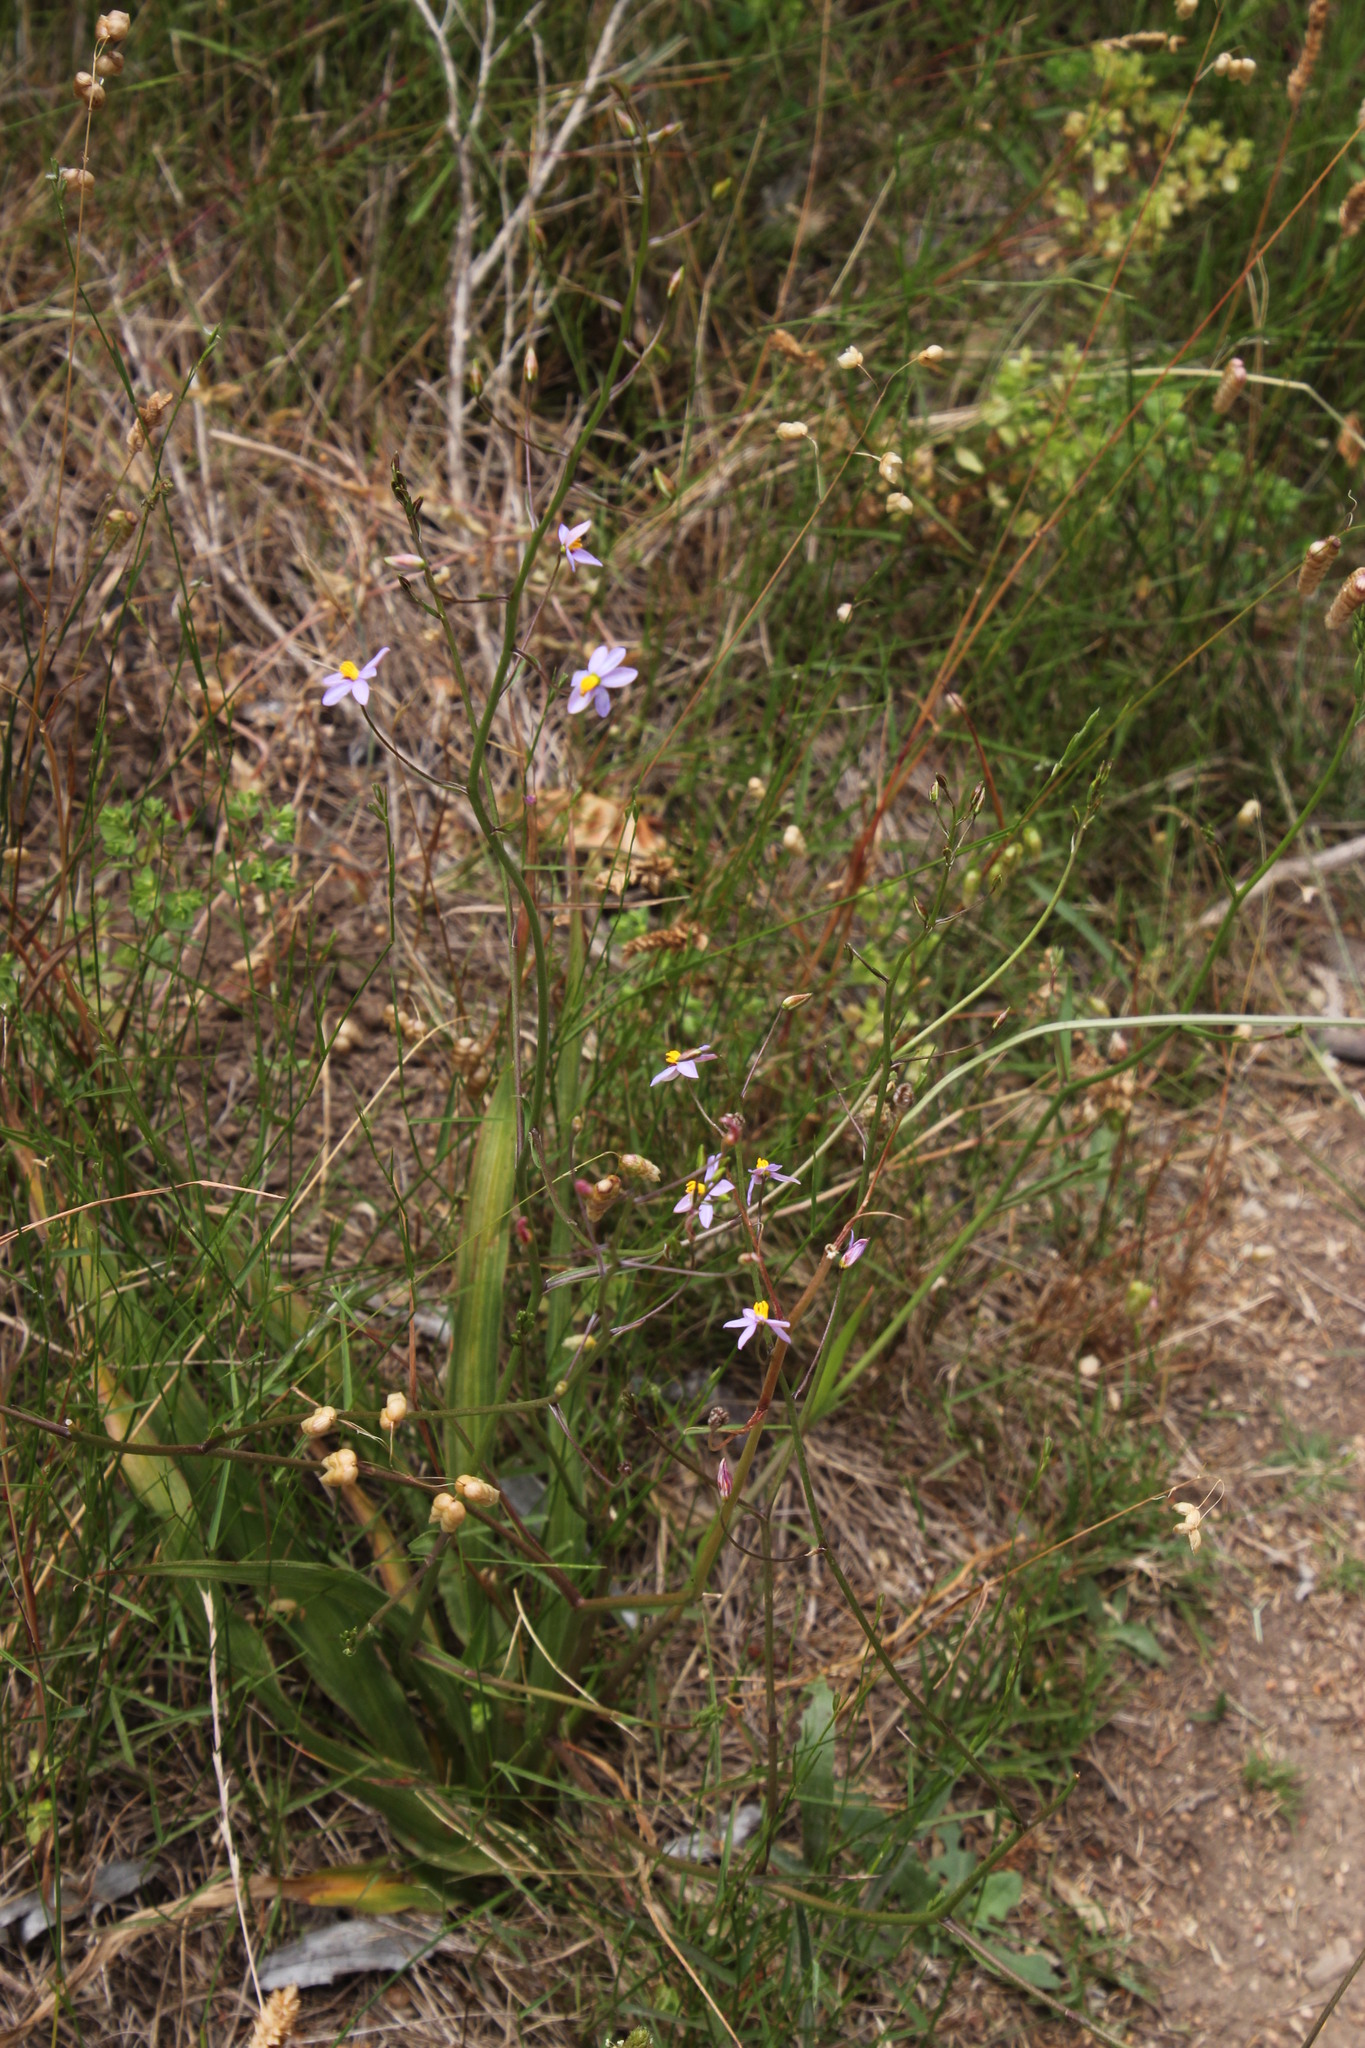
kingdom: Plantae
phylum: Tracheophyta
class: Liliopsida
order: Asparagales
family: Tecophilaeaceae
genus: Cyanella
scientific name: Cyanella hyacinthoides
